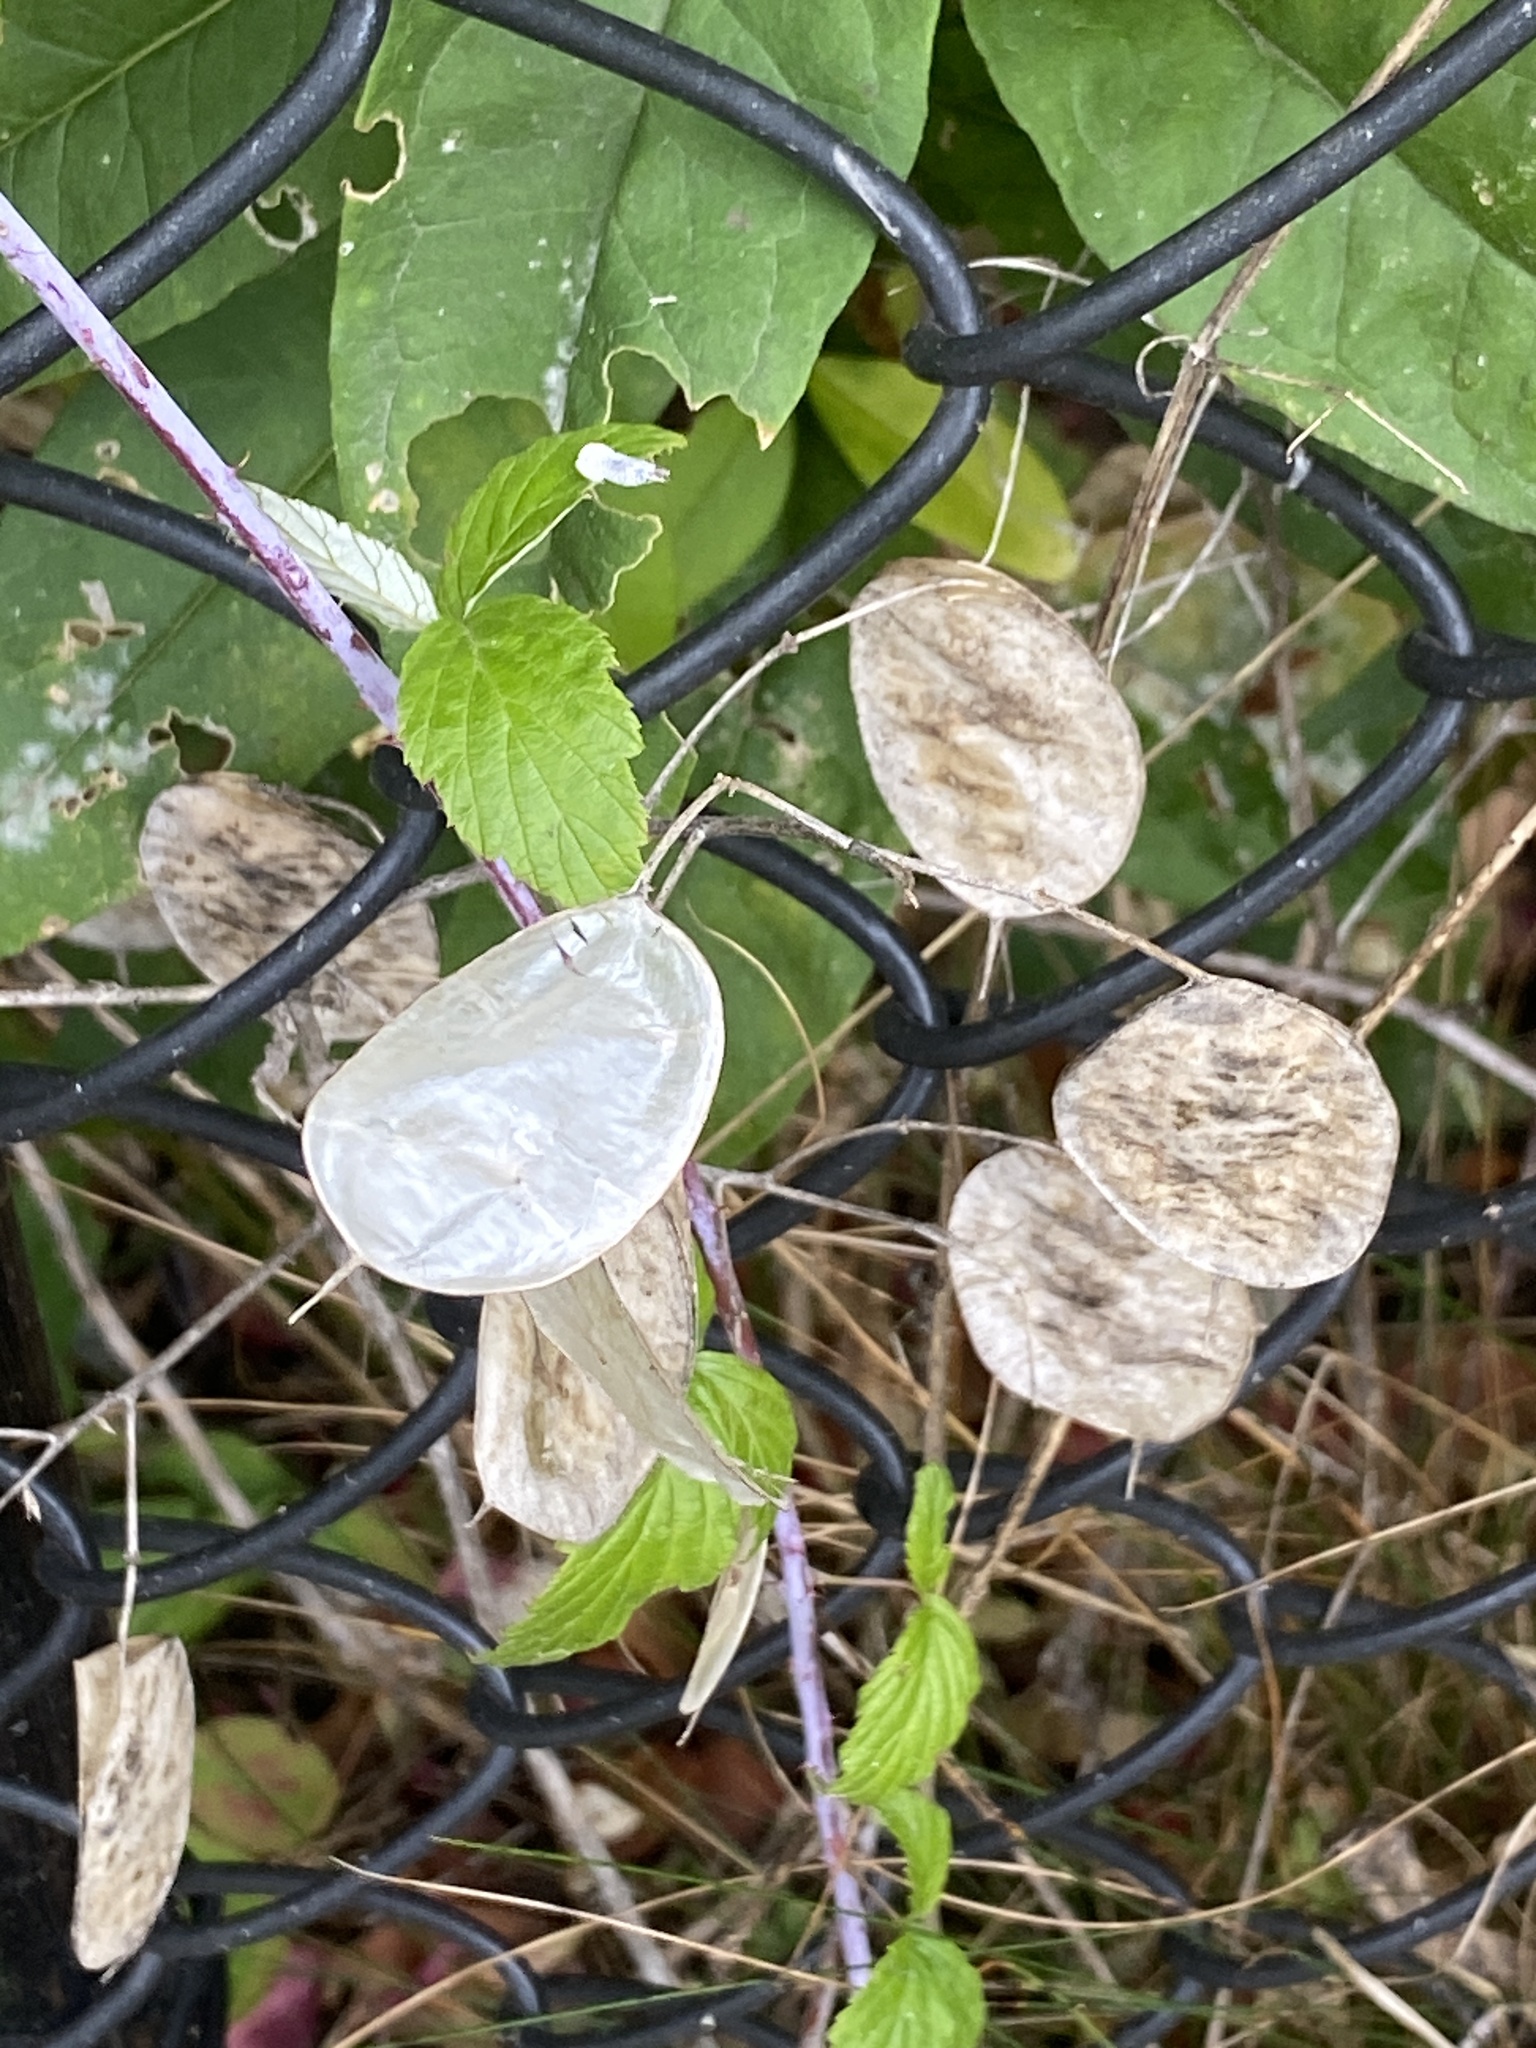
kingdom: Plantae
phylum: Tracheophyta
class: Magnoliopsida
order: Brassicales
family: Brassicaceae
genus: Lunaria
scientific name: Lunaria annua
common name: Honesty
